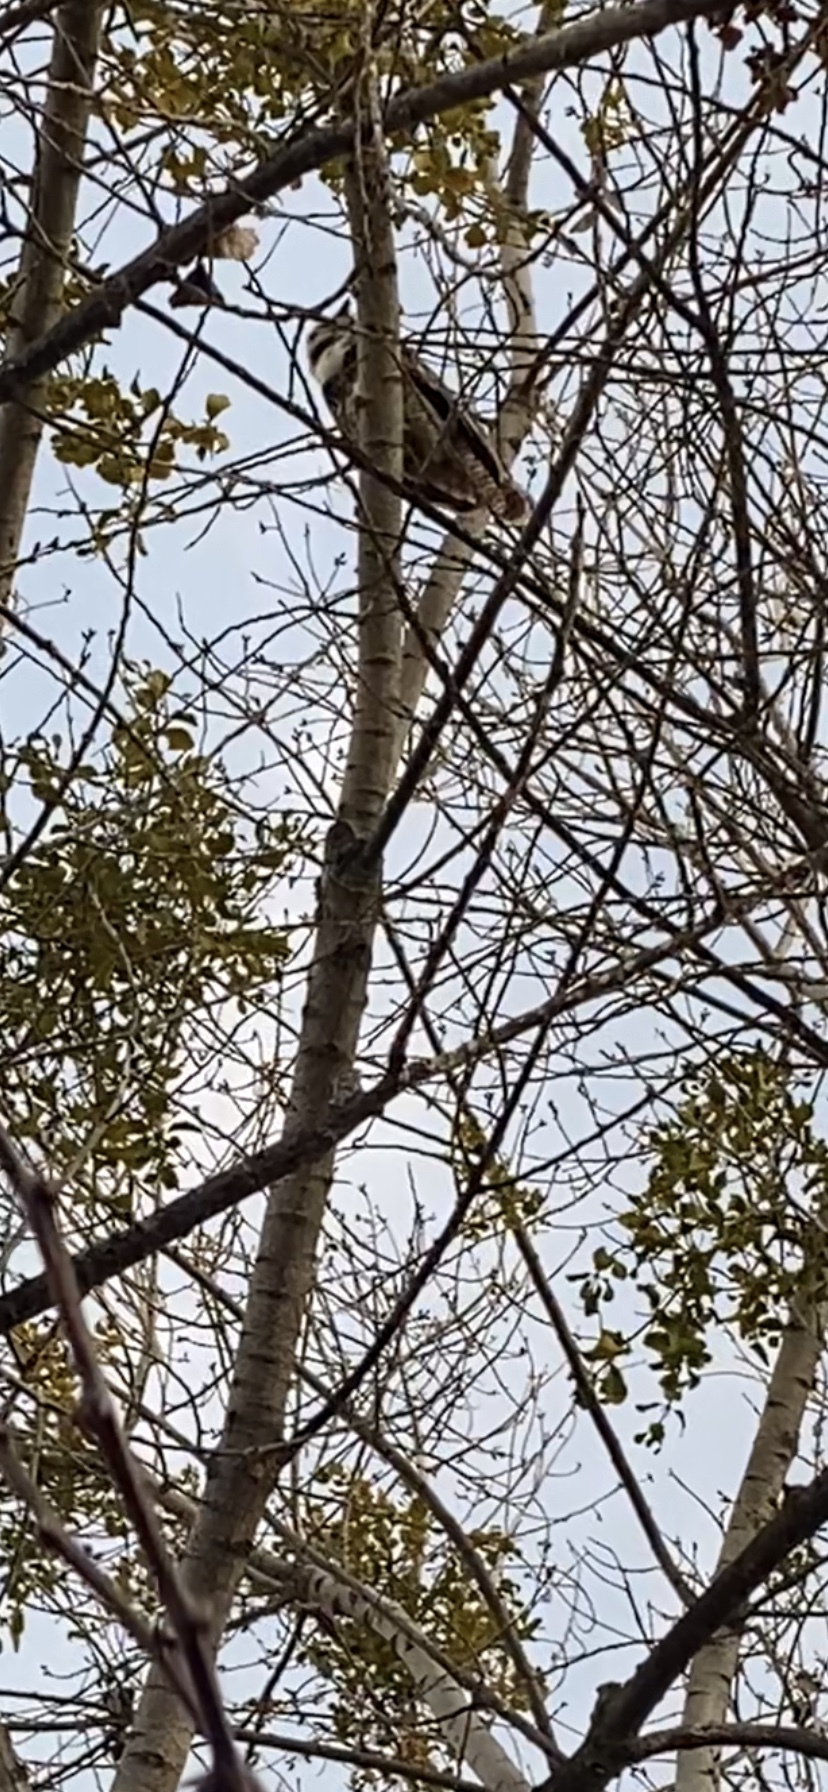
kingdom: Animalia
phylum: Chordata
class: Aves
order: Strigiformes
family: Strigidae
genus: Bubo
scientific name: Bubo virginianus
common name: Great horned owl
